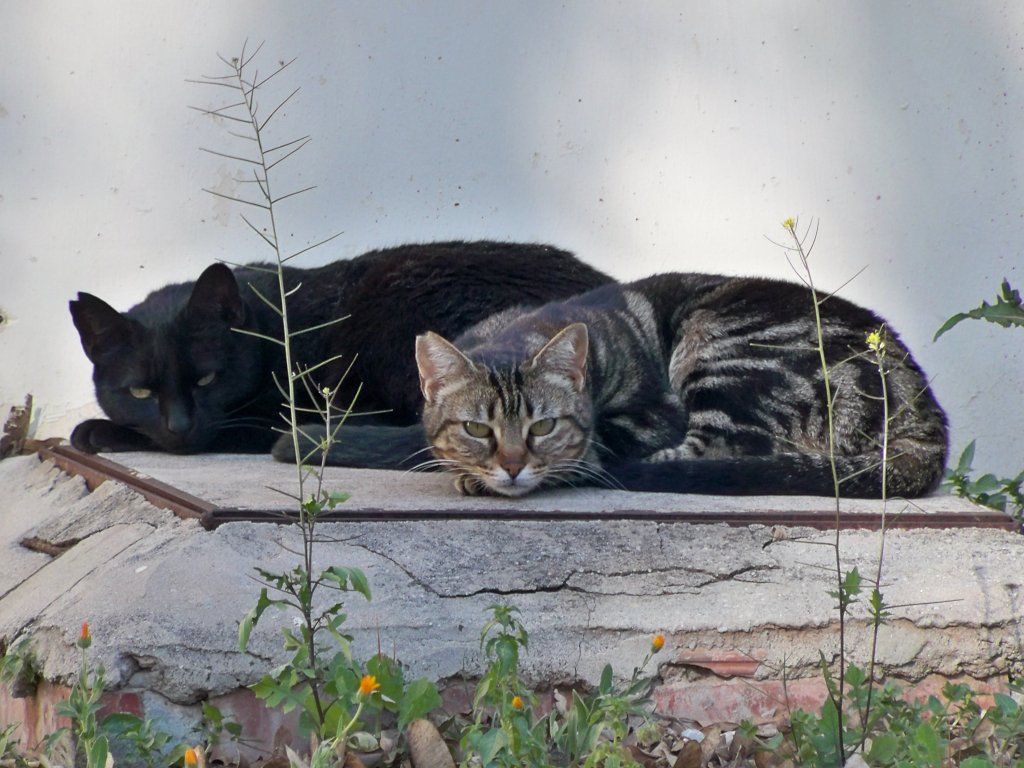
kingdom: Animalia
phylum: Chordata
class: Mammalia
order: Carnivora
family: Felidae
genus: Felis
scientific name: Felis catus
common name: Domestic cat
